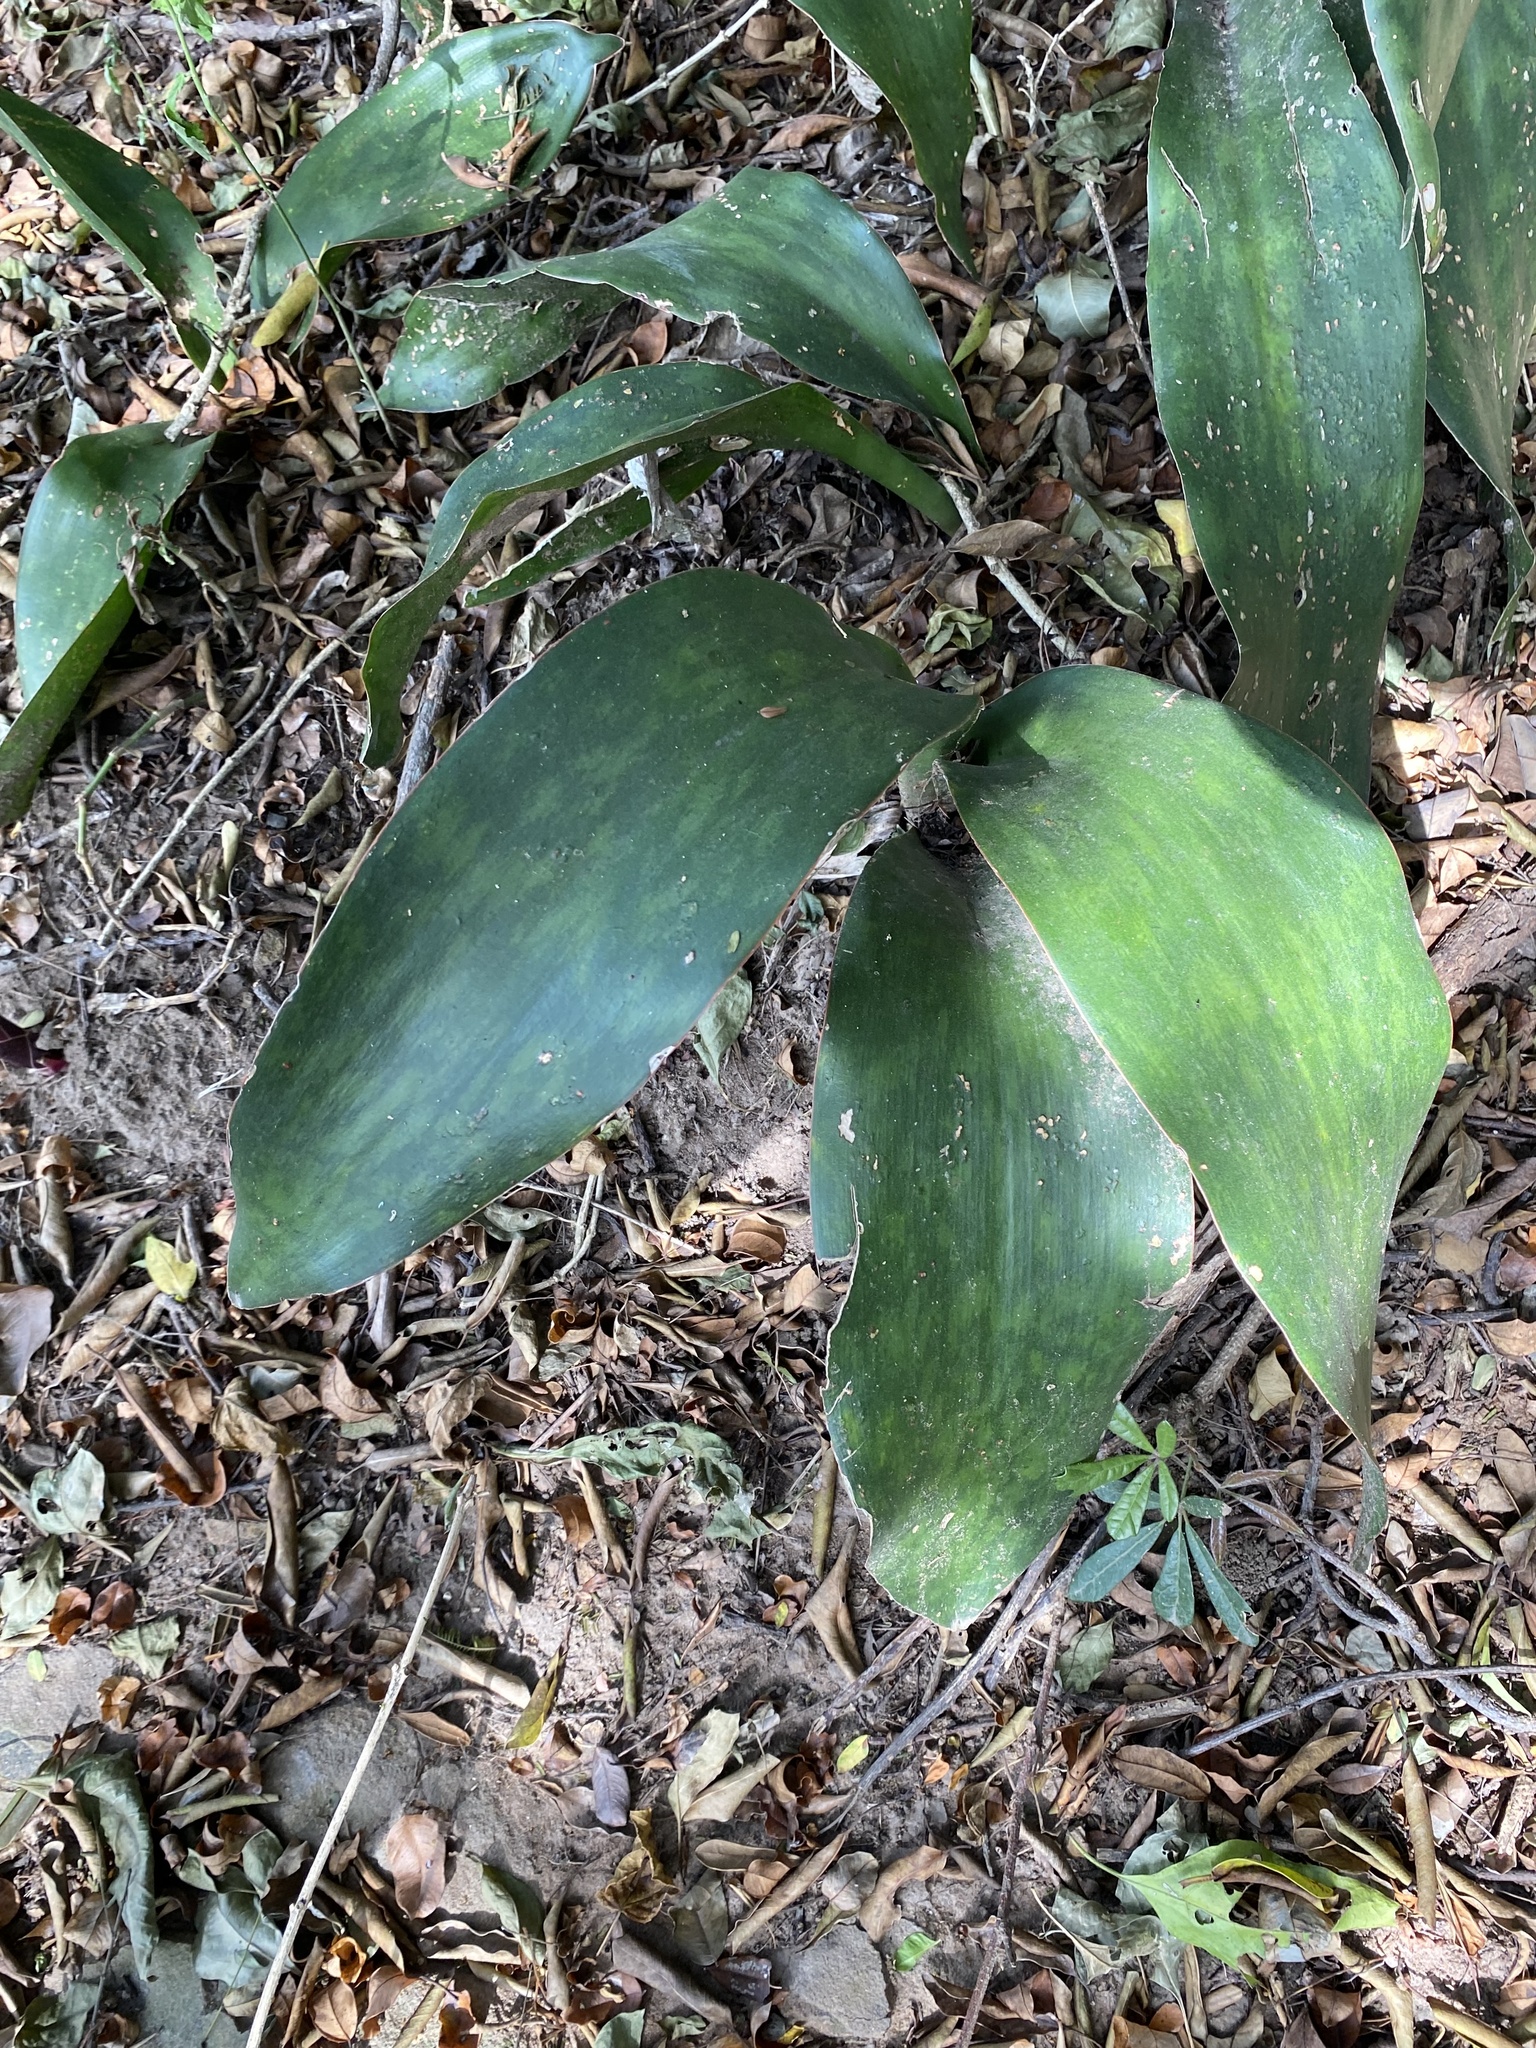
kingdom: Plantae
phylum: Tracheophyta
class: Liliopsida
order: Asparagales
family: Asparagaceae
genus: Dracaena
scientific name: Dracaena hyacinthoides
